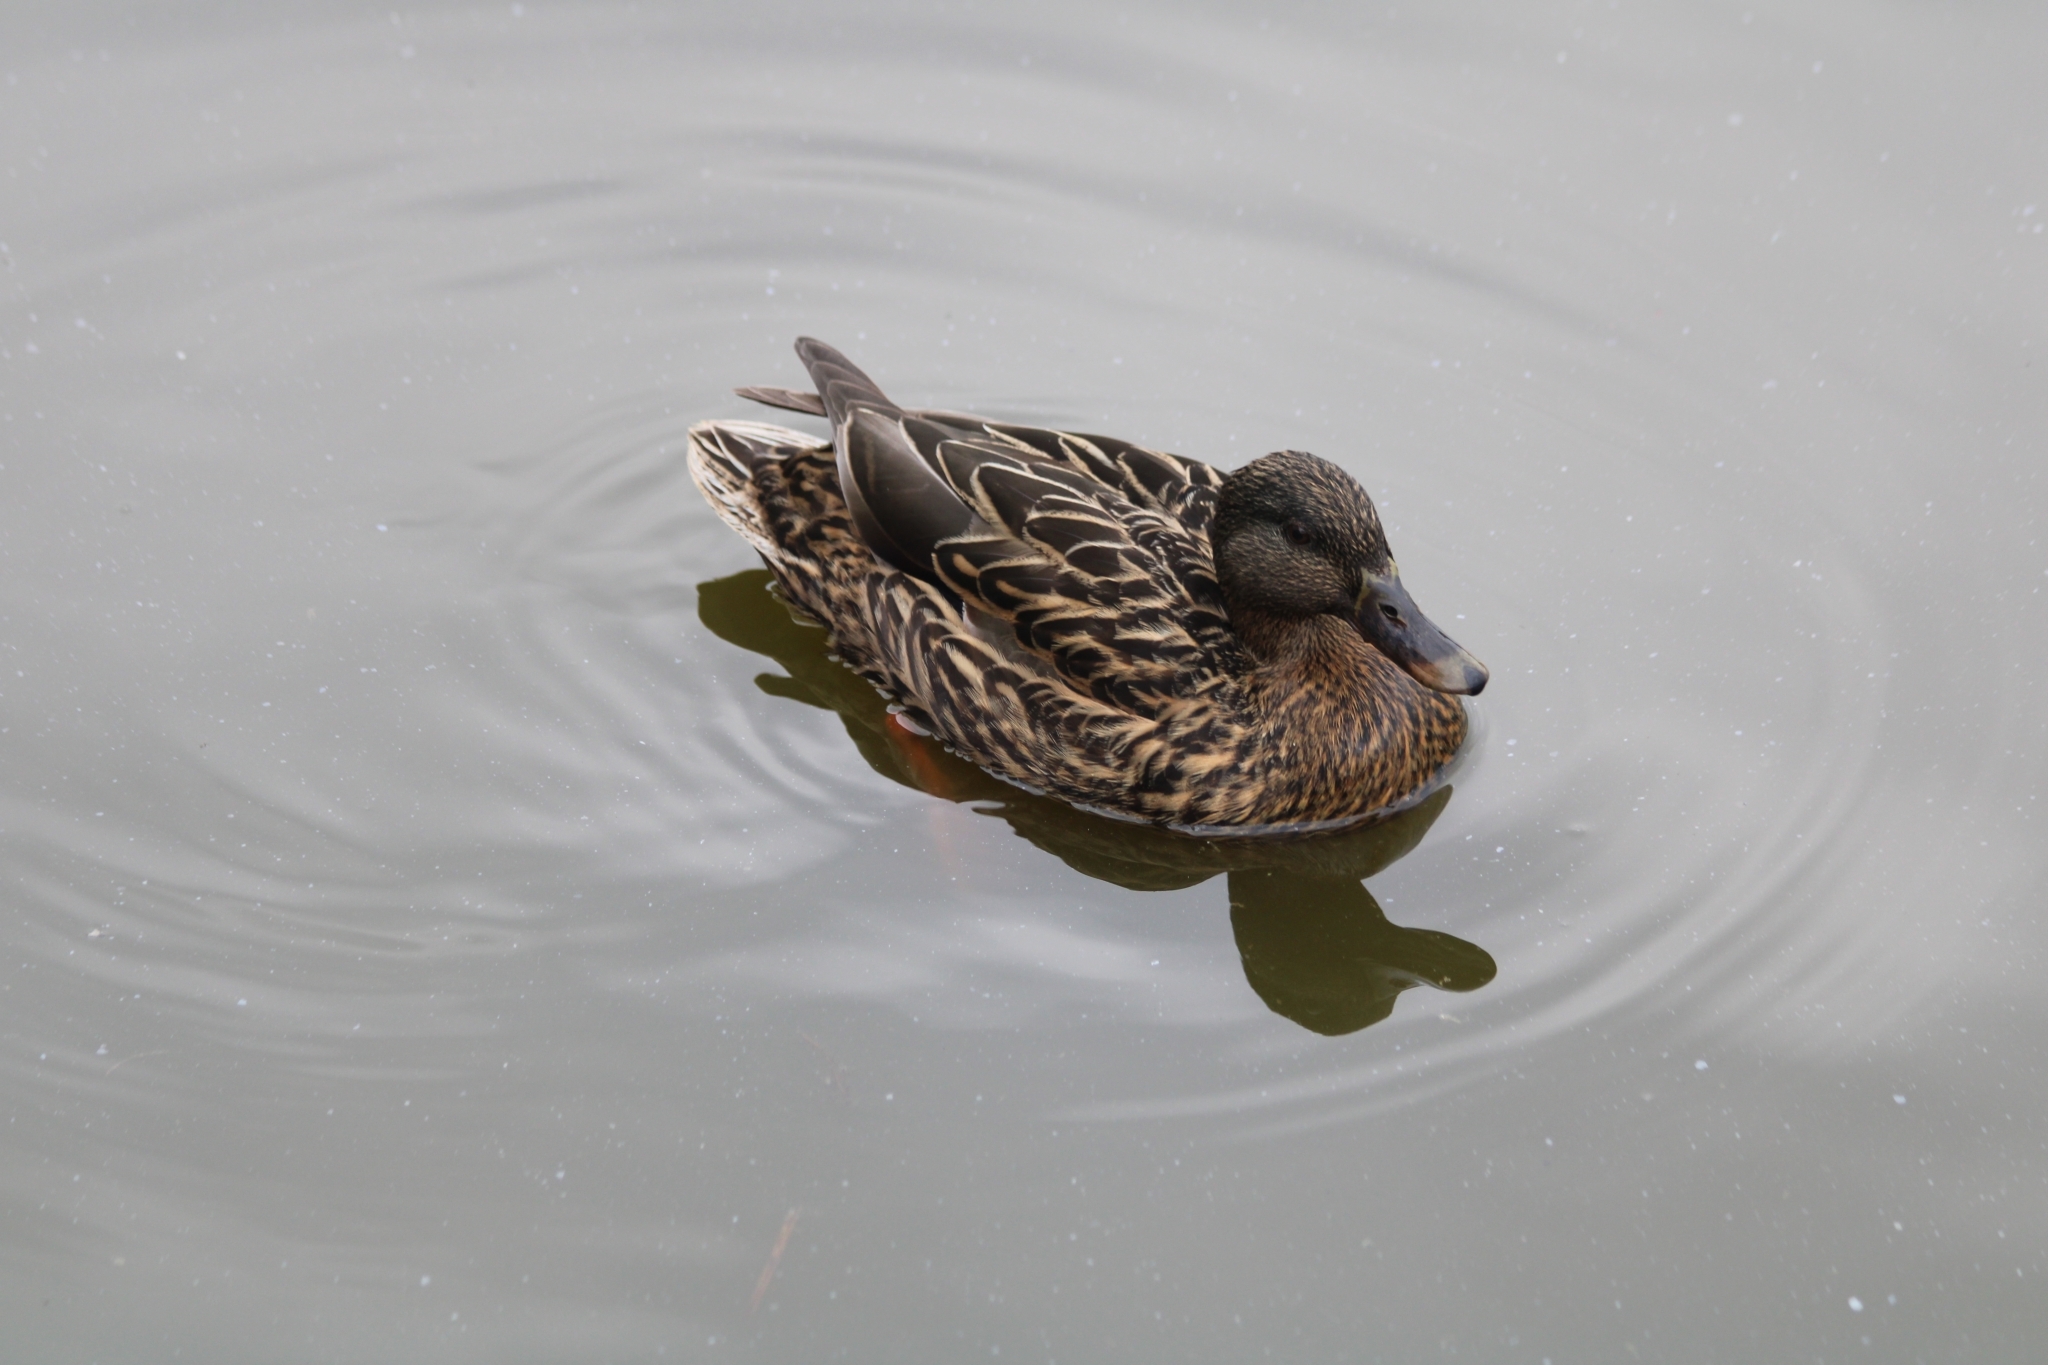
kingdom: Animalia
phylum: Chordata
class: Aves
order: Anseriformes
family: Anatidae
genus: Anas
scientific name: Anas platyrhynchos
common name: Mallard
